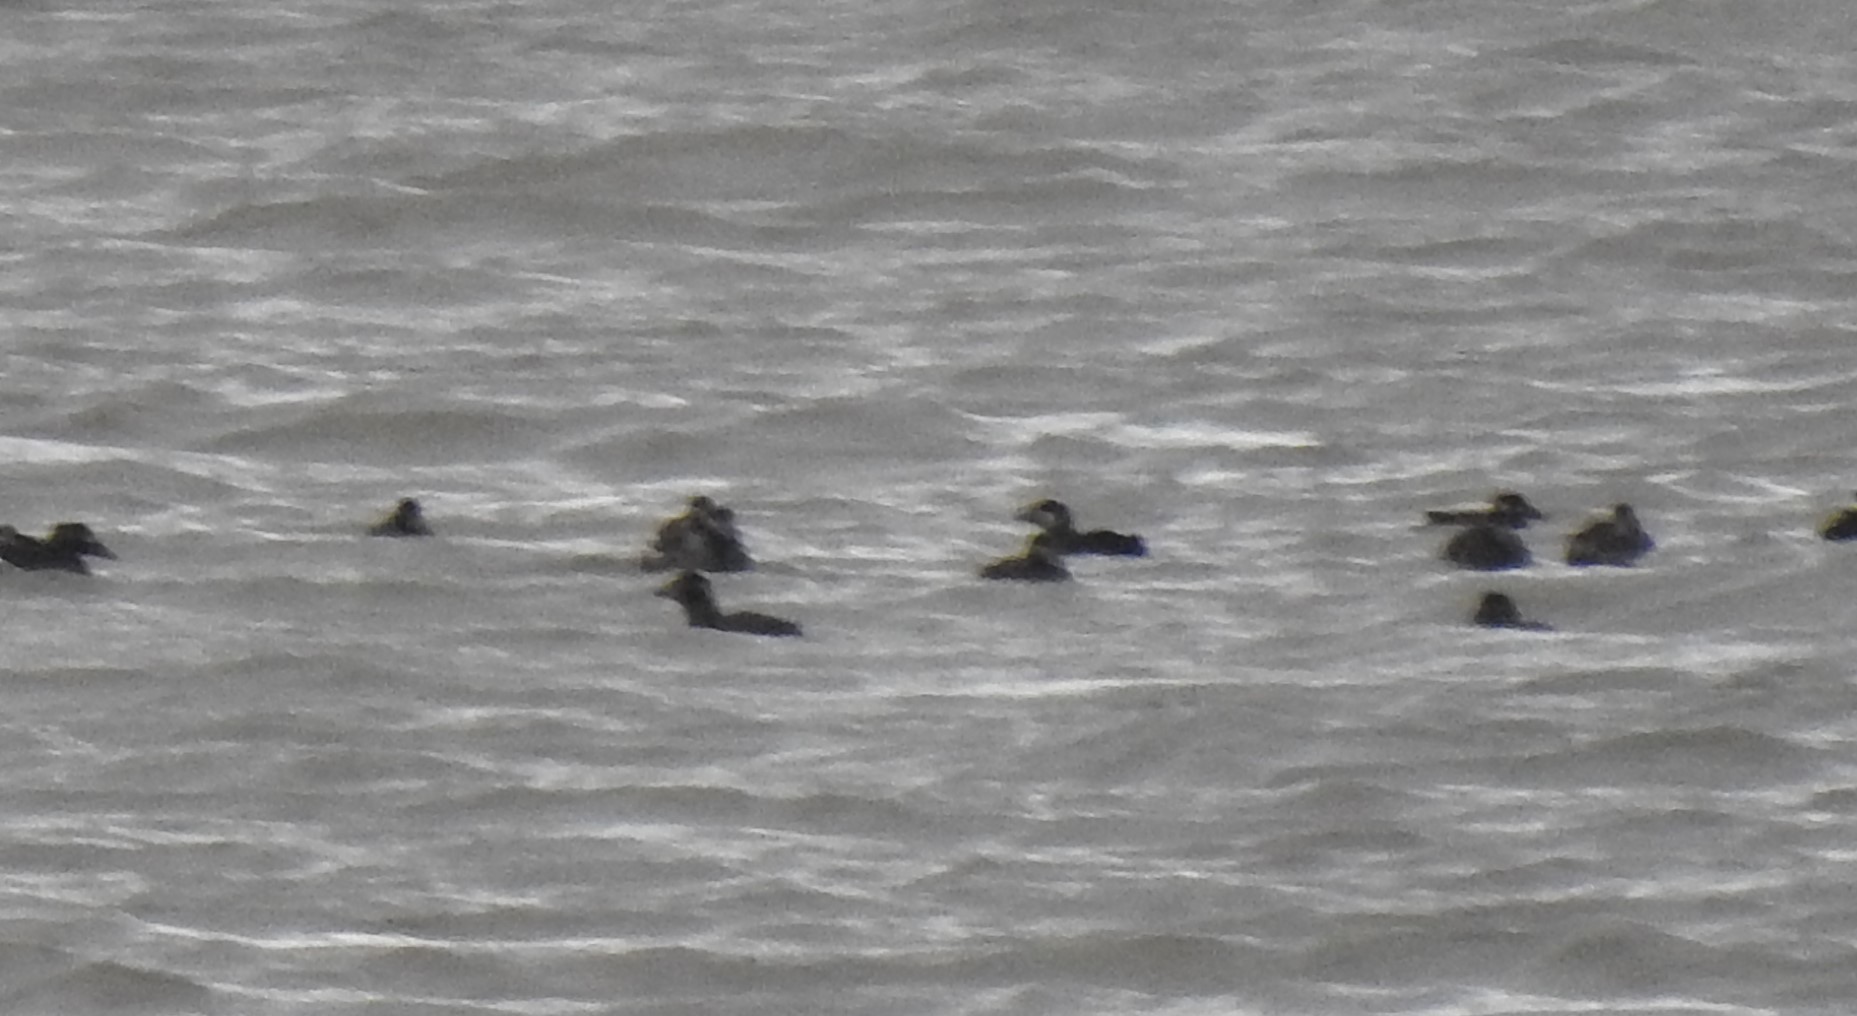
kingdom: Animalia
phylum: Chordata
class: Aves
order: Anseriformes
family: Anatidae
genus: Melanitta
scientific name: Melanitta americana
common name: Black scoter
